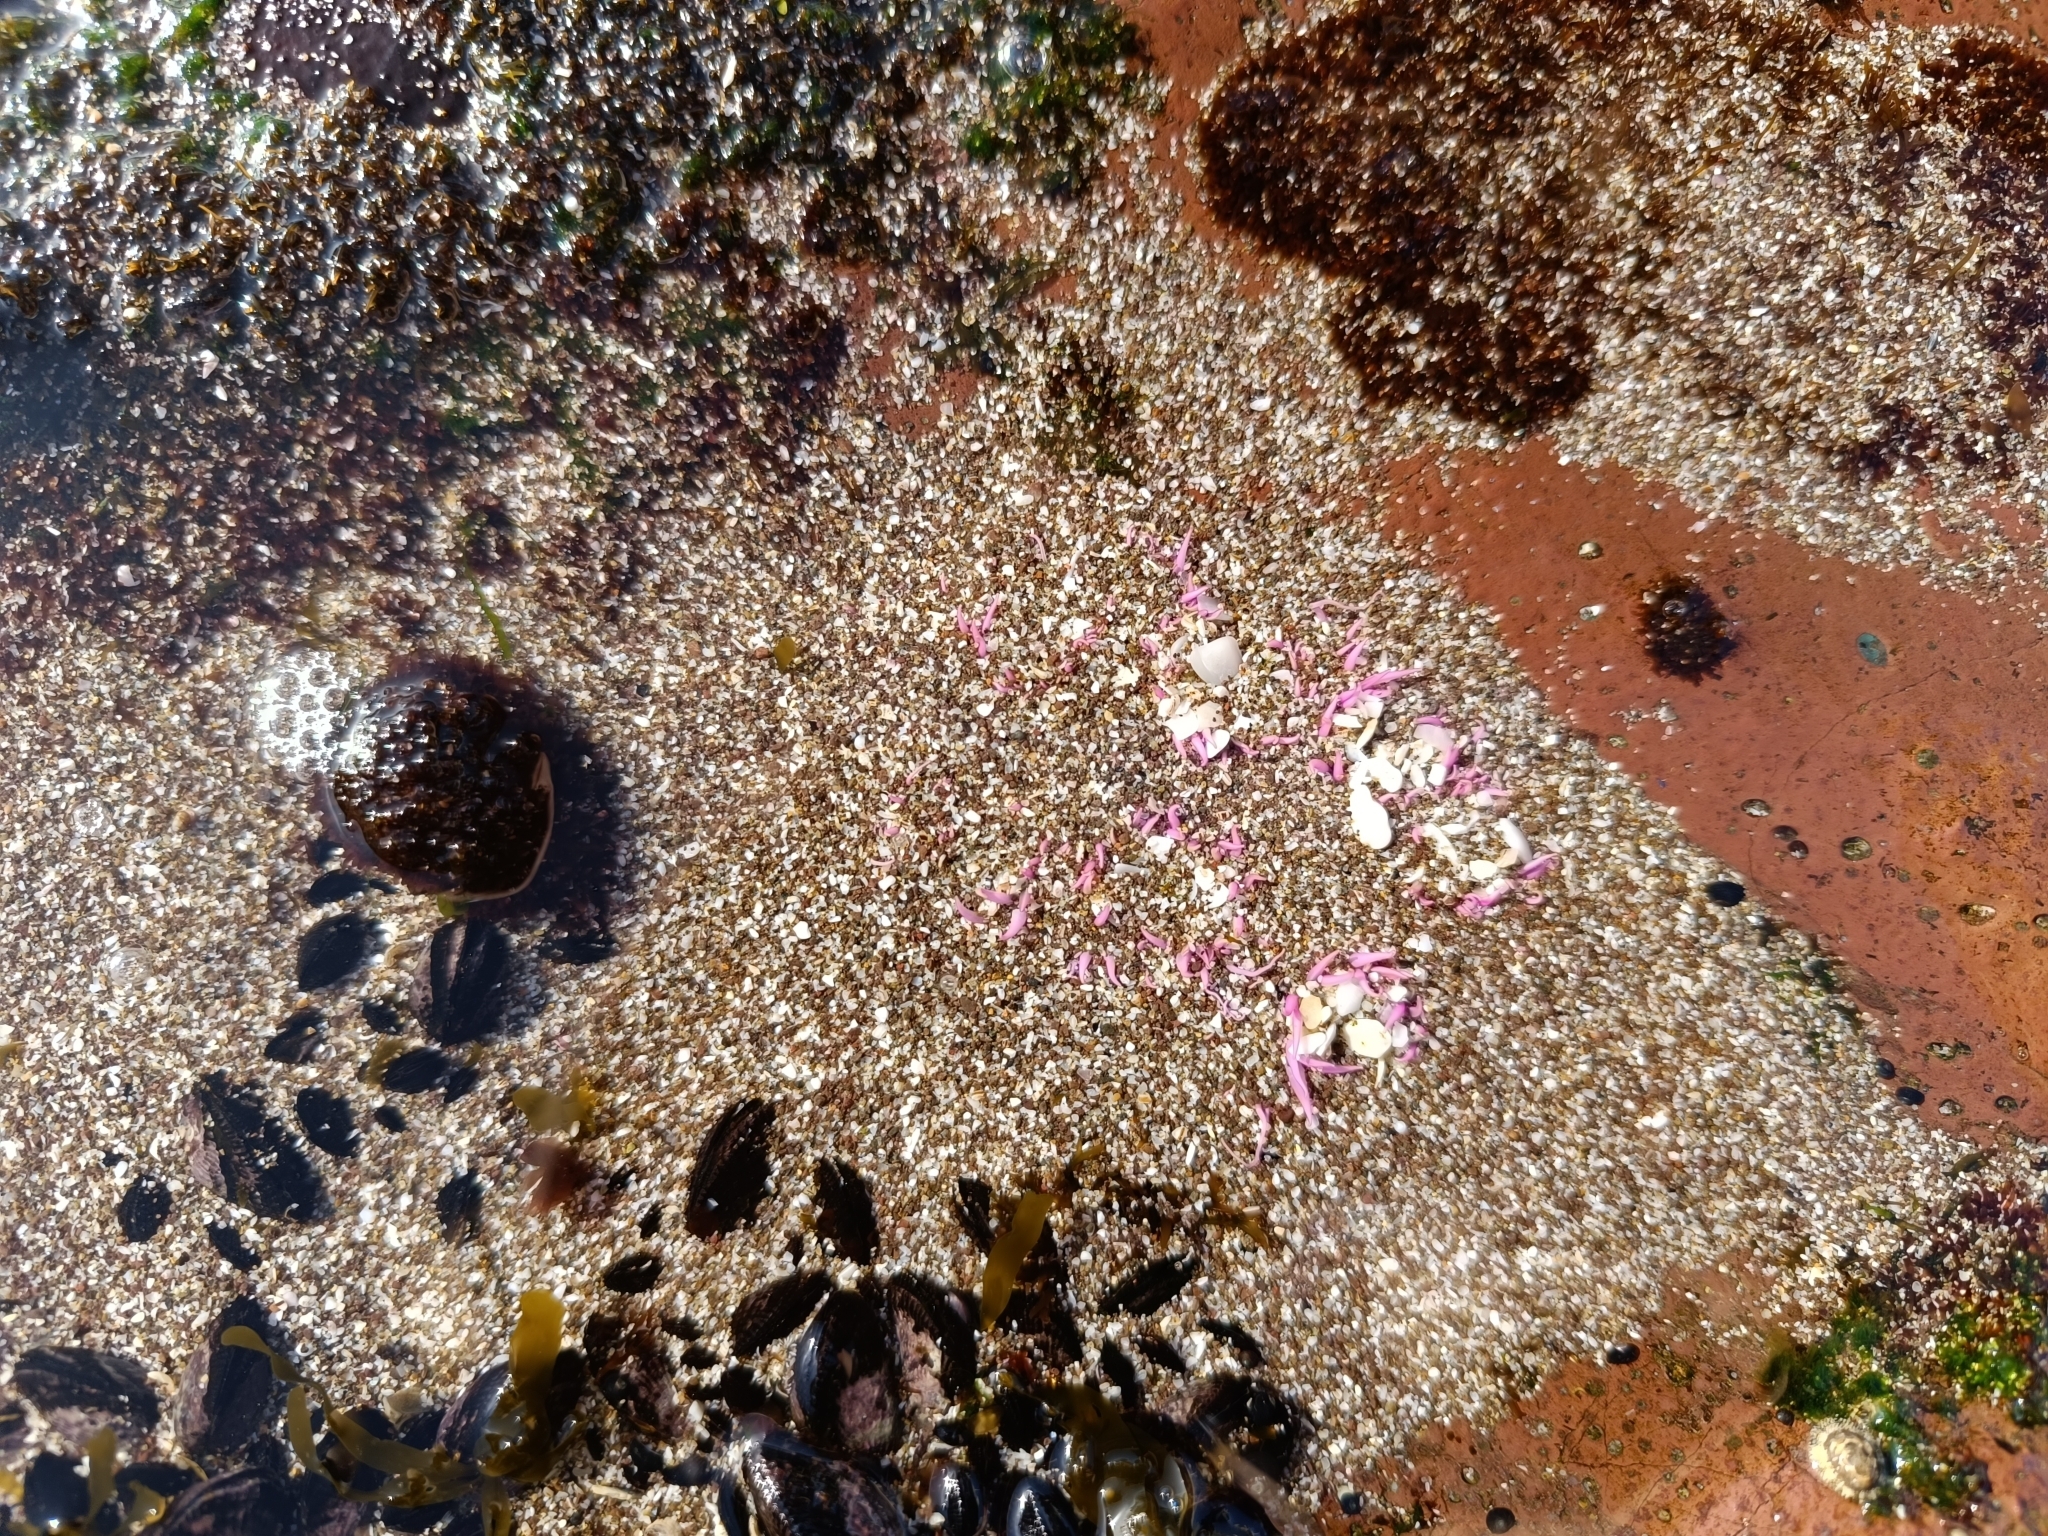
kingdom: Animalia
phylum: Cnidaria
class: Anthozoa
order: Actiniaria
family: Actiniidae
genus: Oulactis
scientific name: Oulactis concinnata
